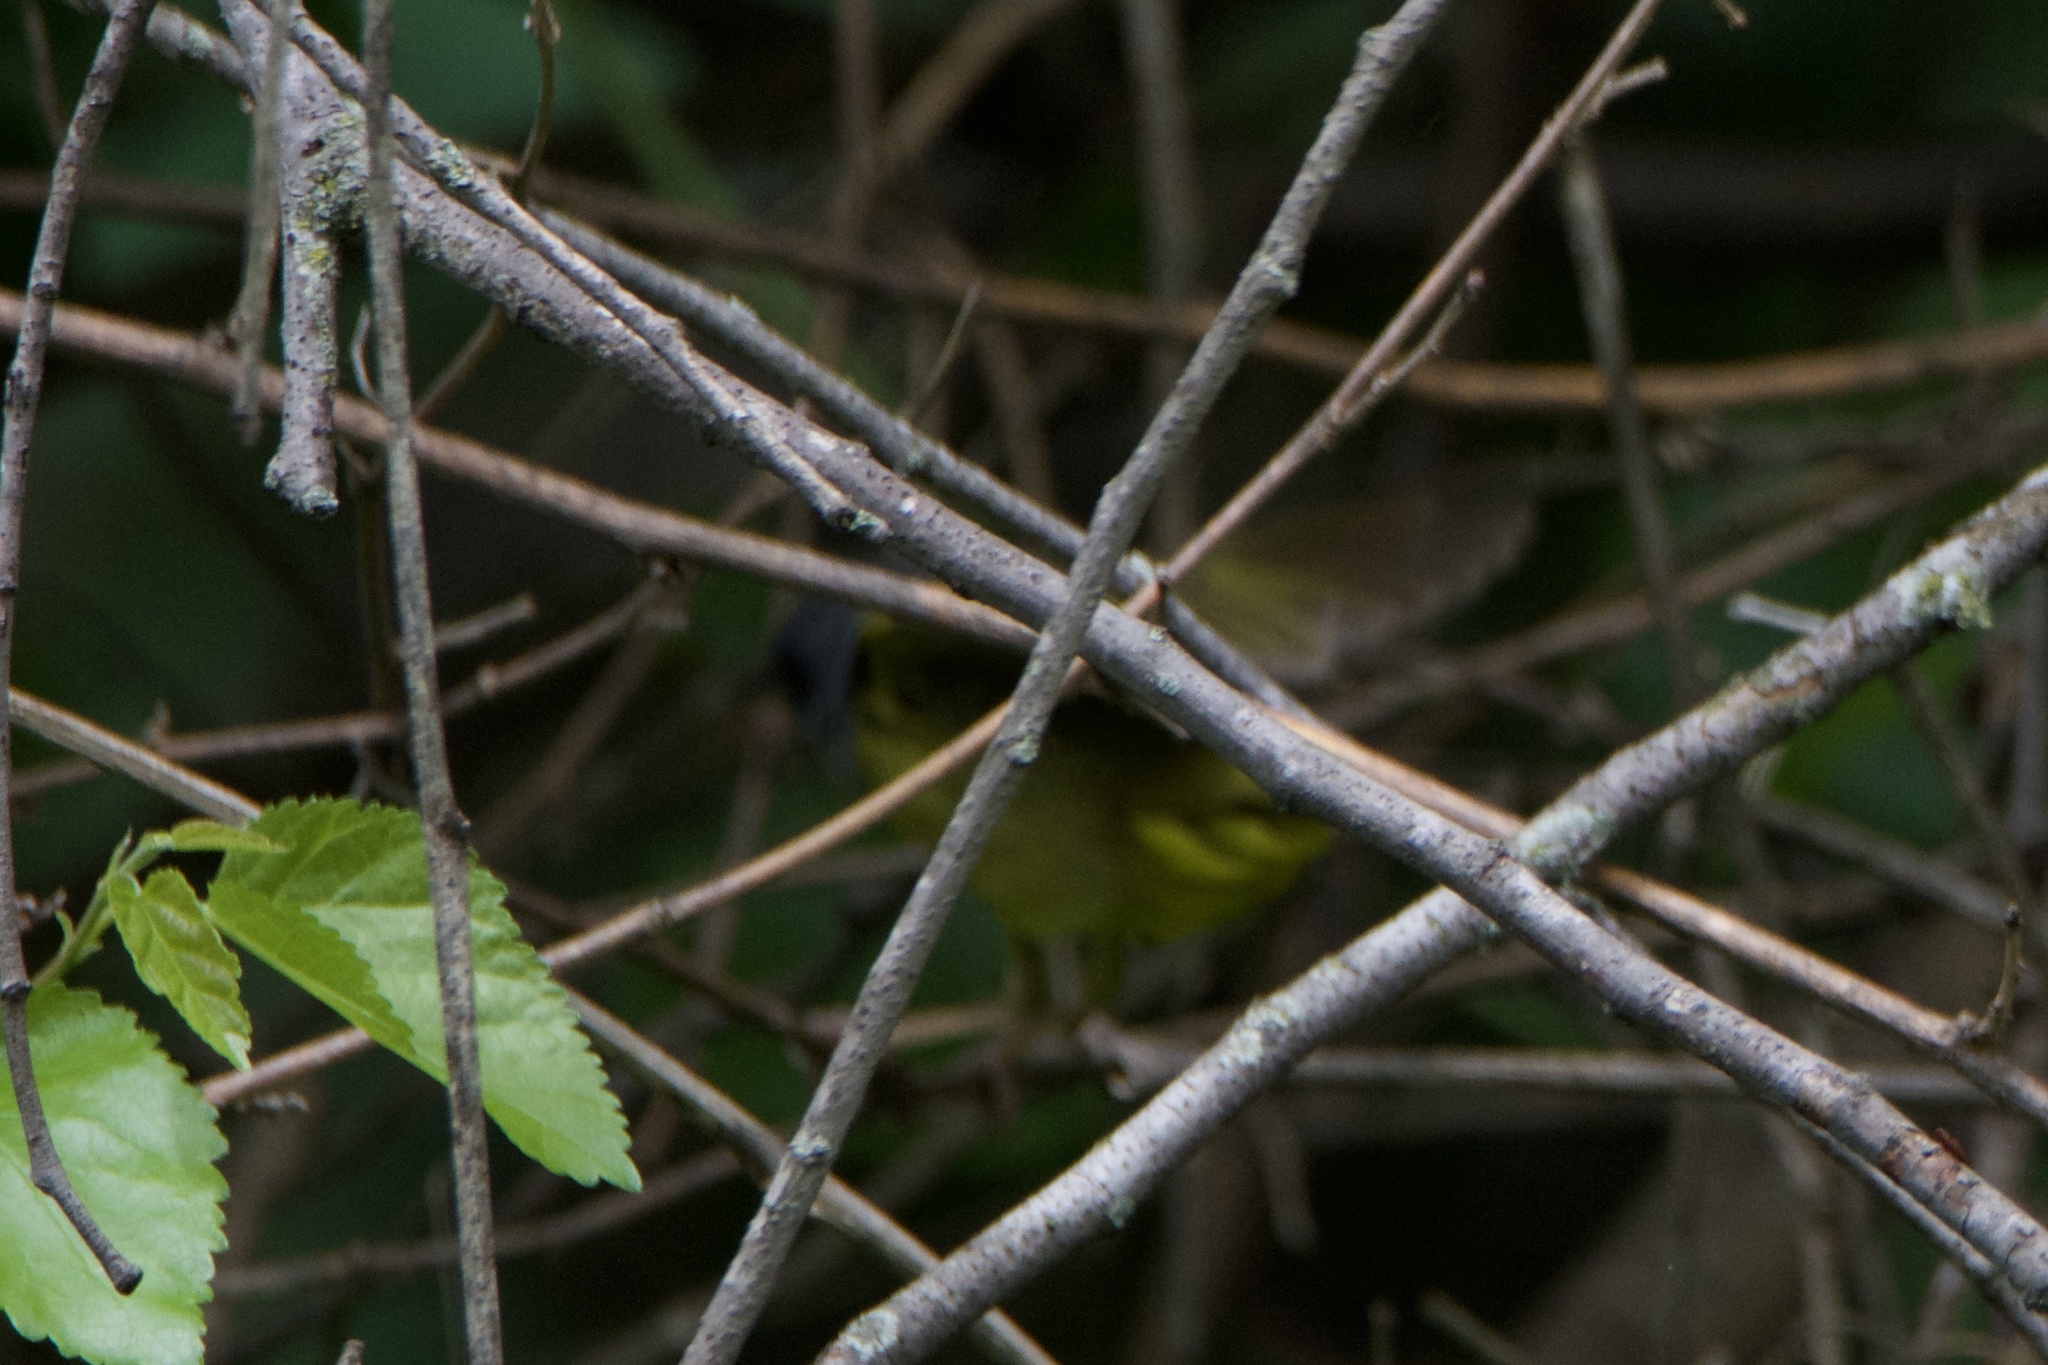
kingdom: Animalia
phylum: Chordata
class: Aves
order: Passeriformes
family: Parulidae
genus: Geothlypis
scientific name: Geothlypis philadelphia
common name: Mourning warbler
